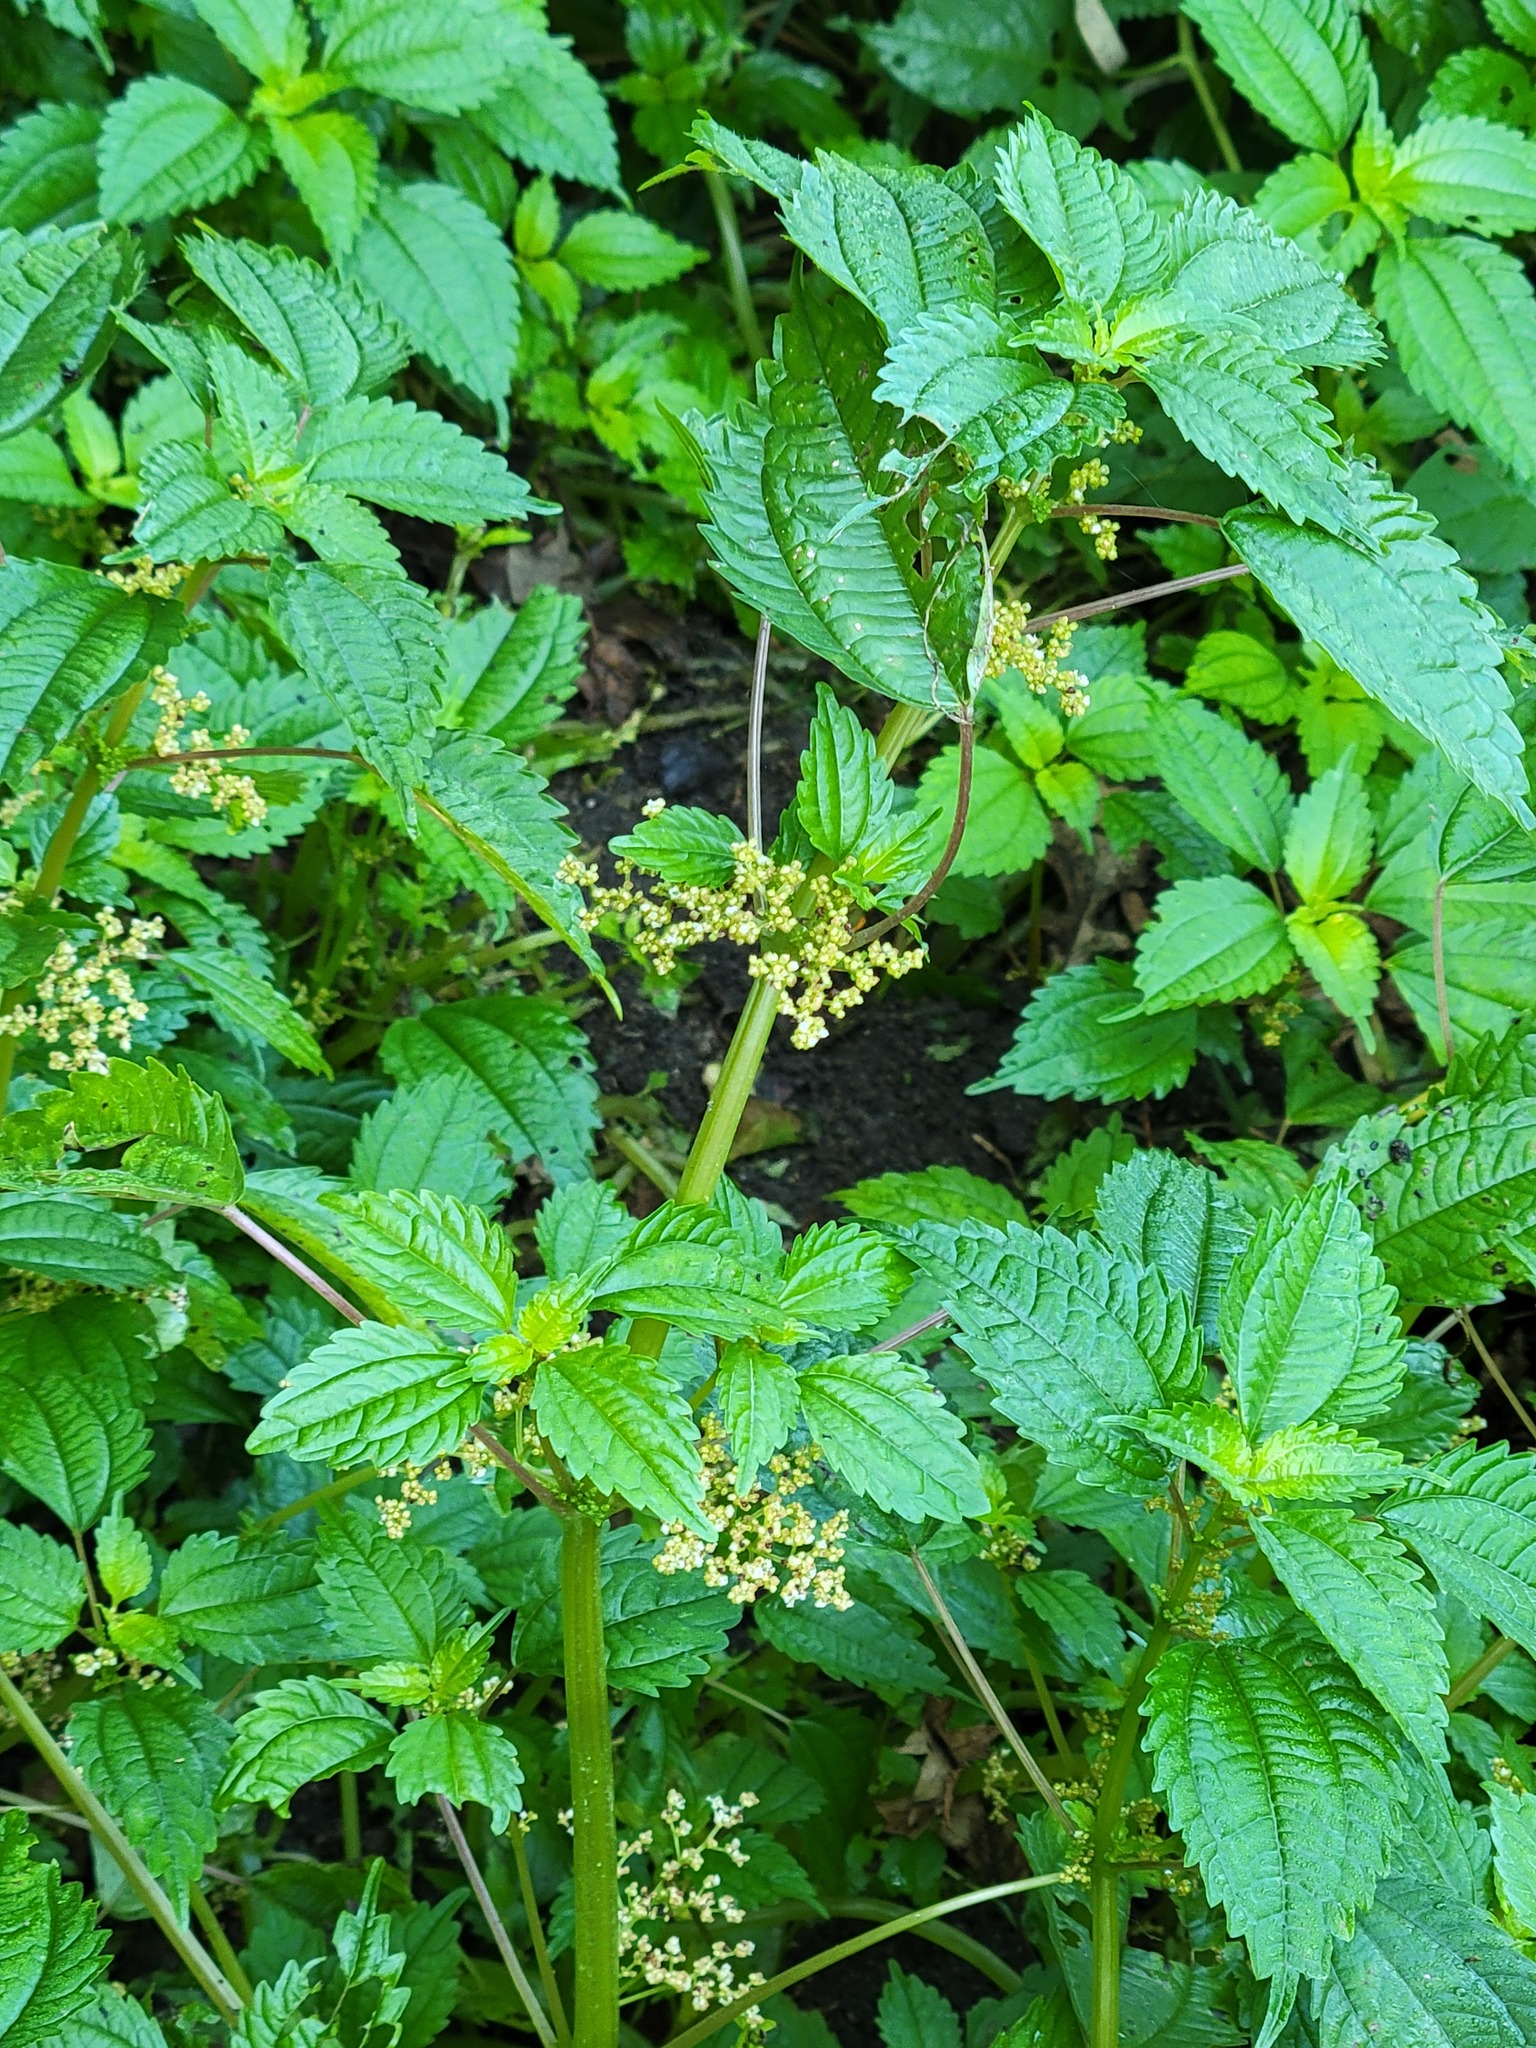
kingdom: Plantae
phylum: Tracheophyta
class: Magnoliopsida
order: Rosales
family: Urticaceae
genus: Pilea
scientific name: Pilea pumila
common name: Clearweed
